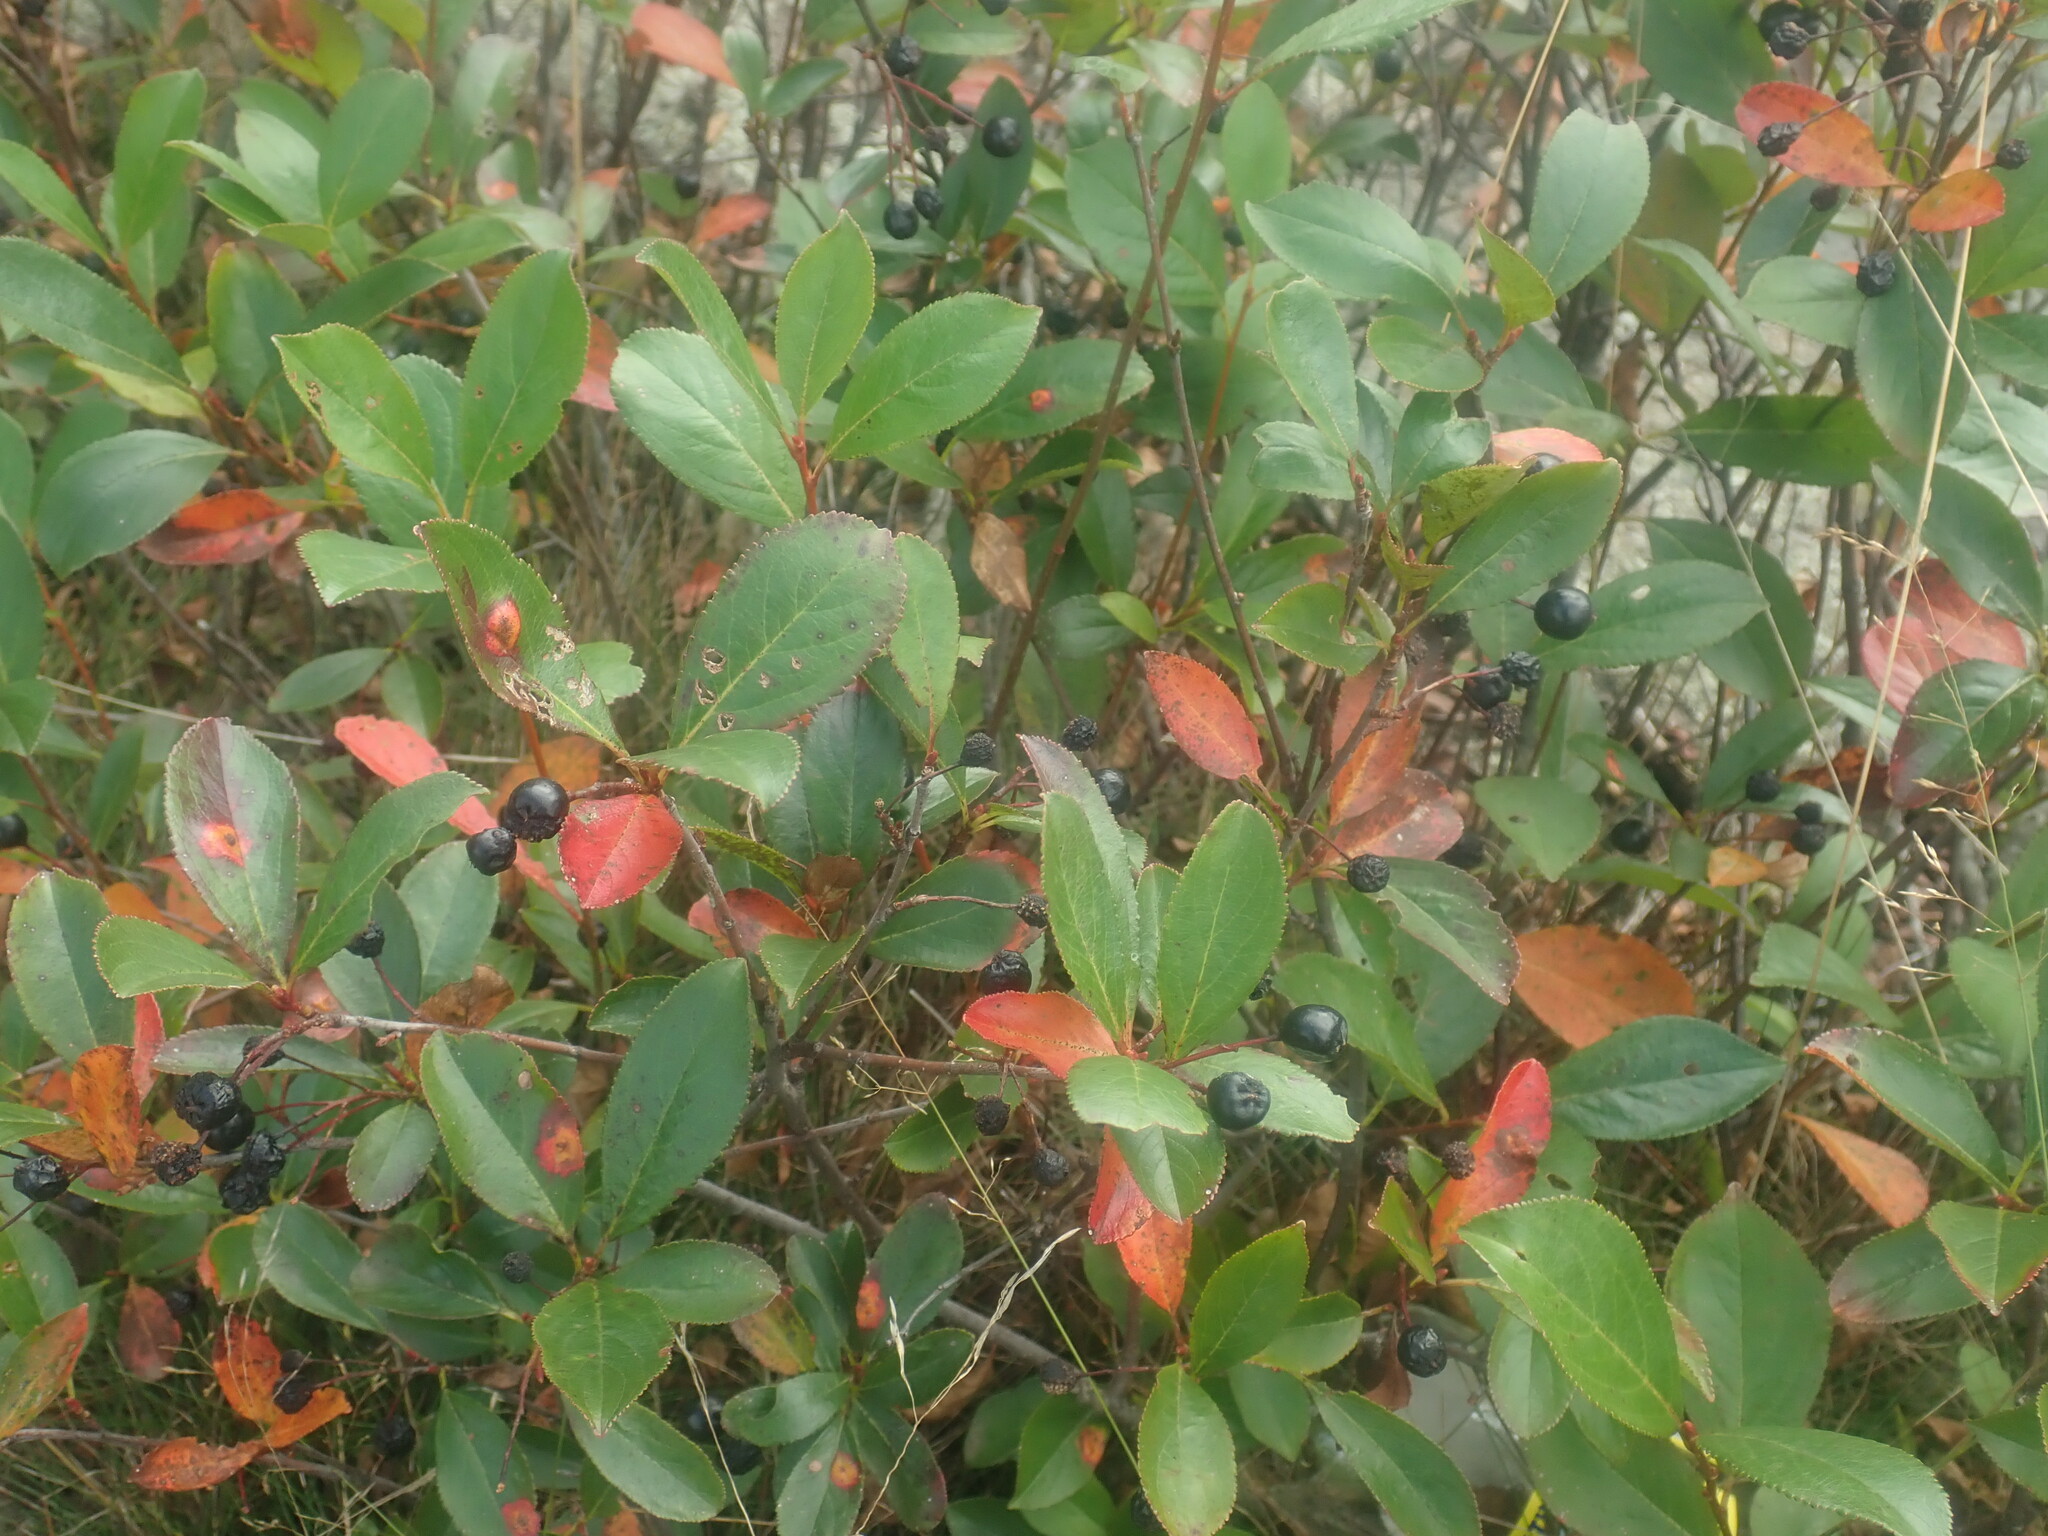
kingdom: Plantae
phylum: Tracheophyta
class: Magnoliopsida
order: Rosales
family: Rosaceae
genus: Aronia
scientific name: Aronia melanocarpa
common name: Black chokeberry
